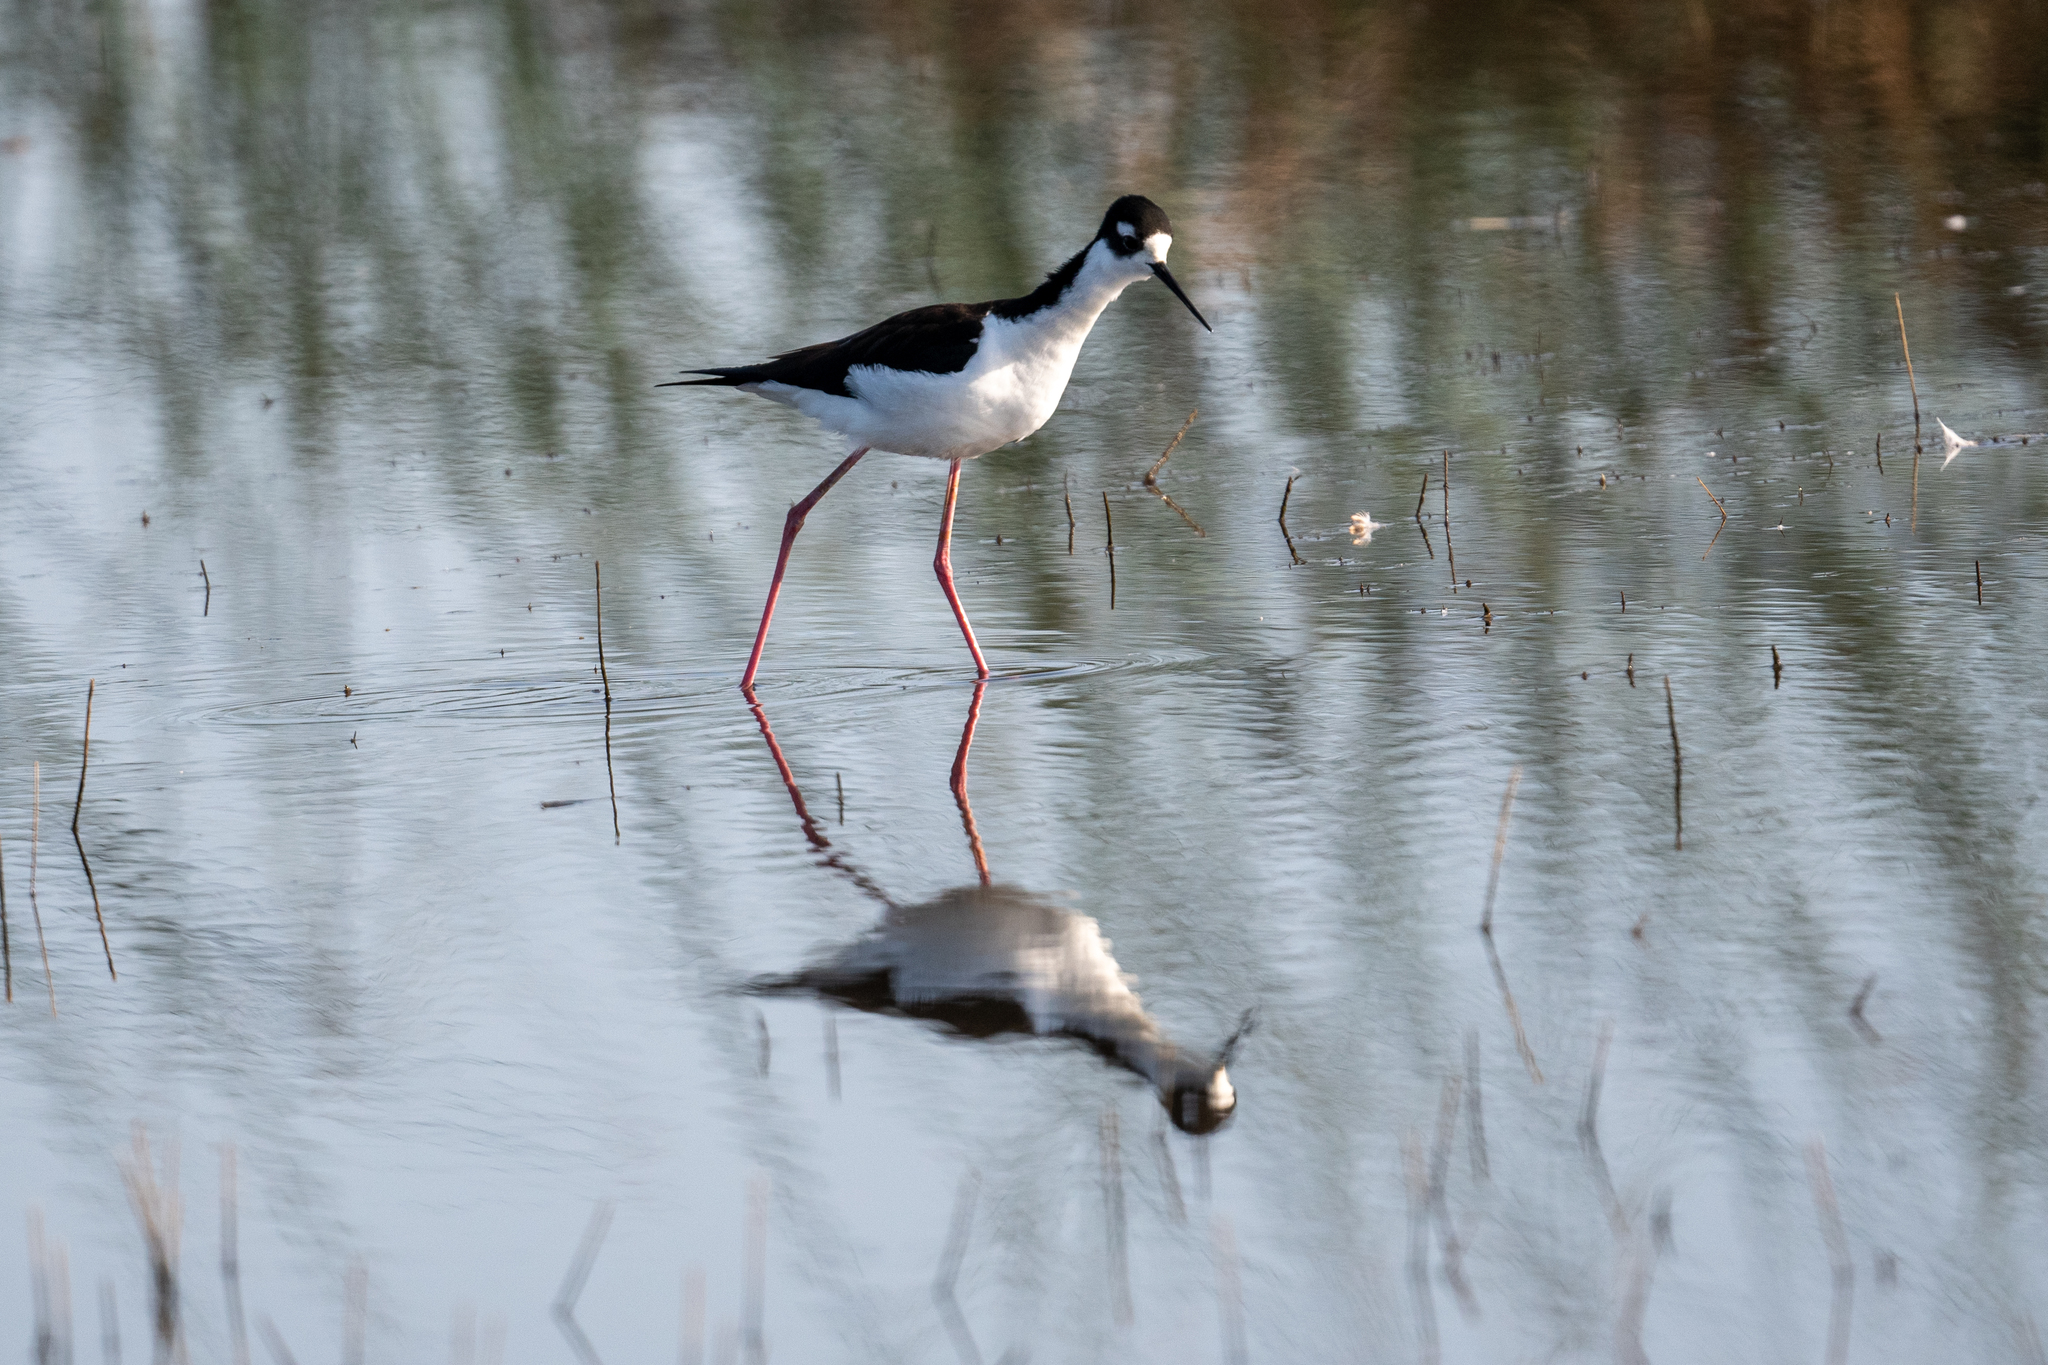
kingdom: Animalia
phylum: Chordata
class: Aves
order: Charadriiformes
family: Recurvirostridae
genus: Himantopus
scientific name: Himantopus mexicanus
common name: Black-necked stilt
